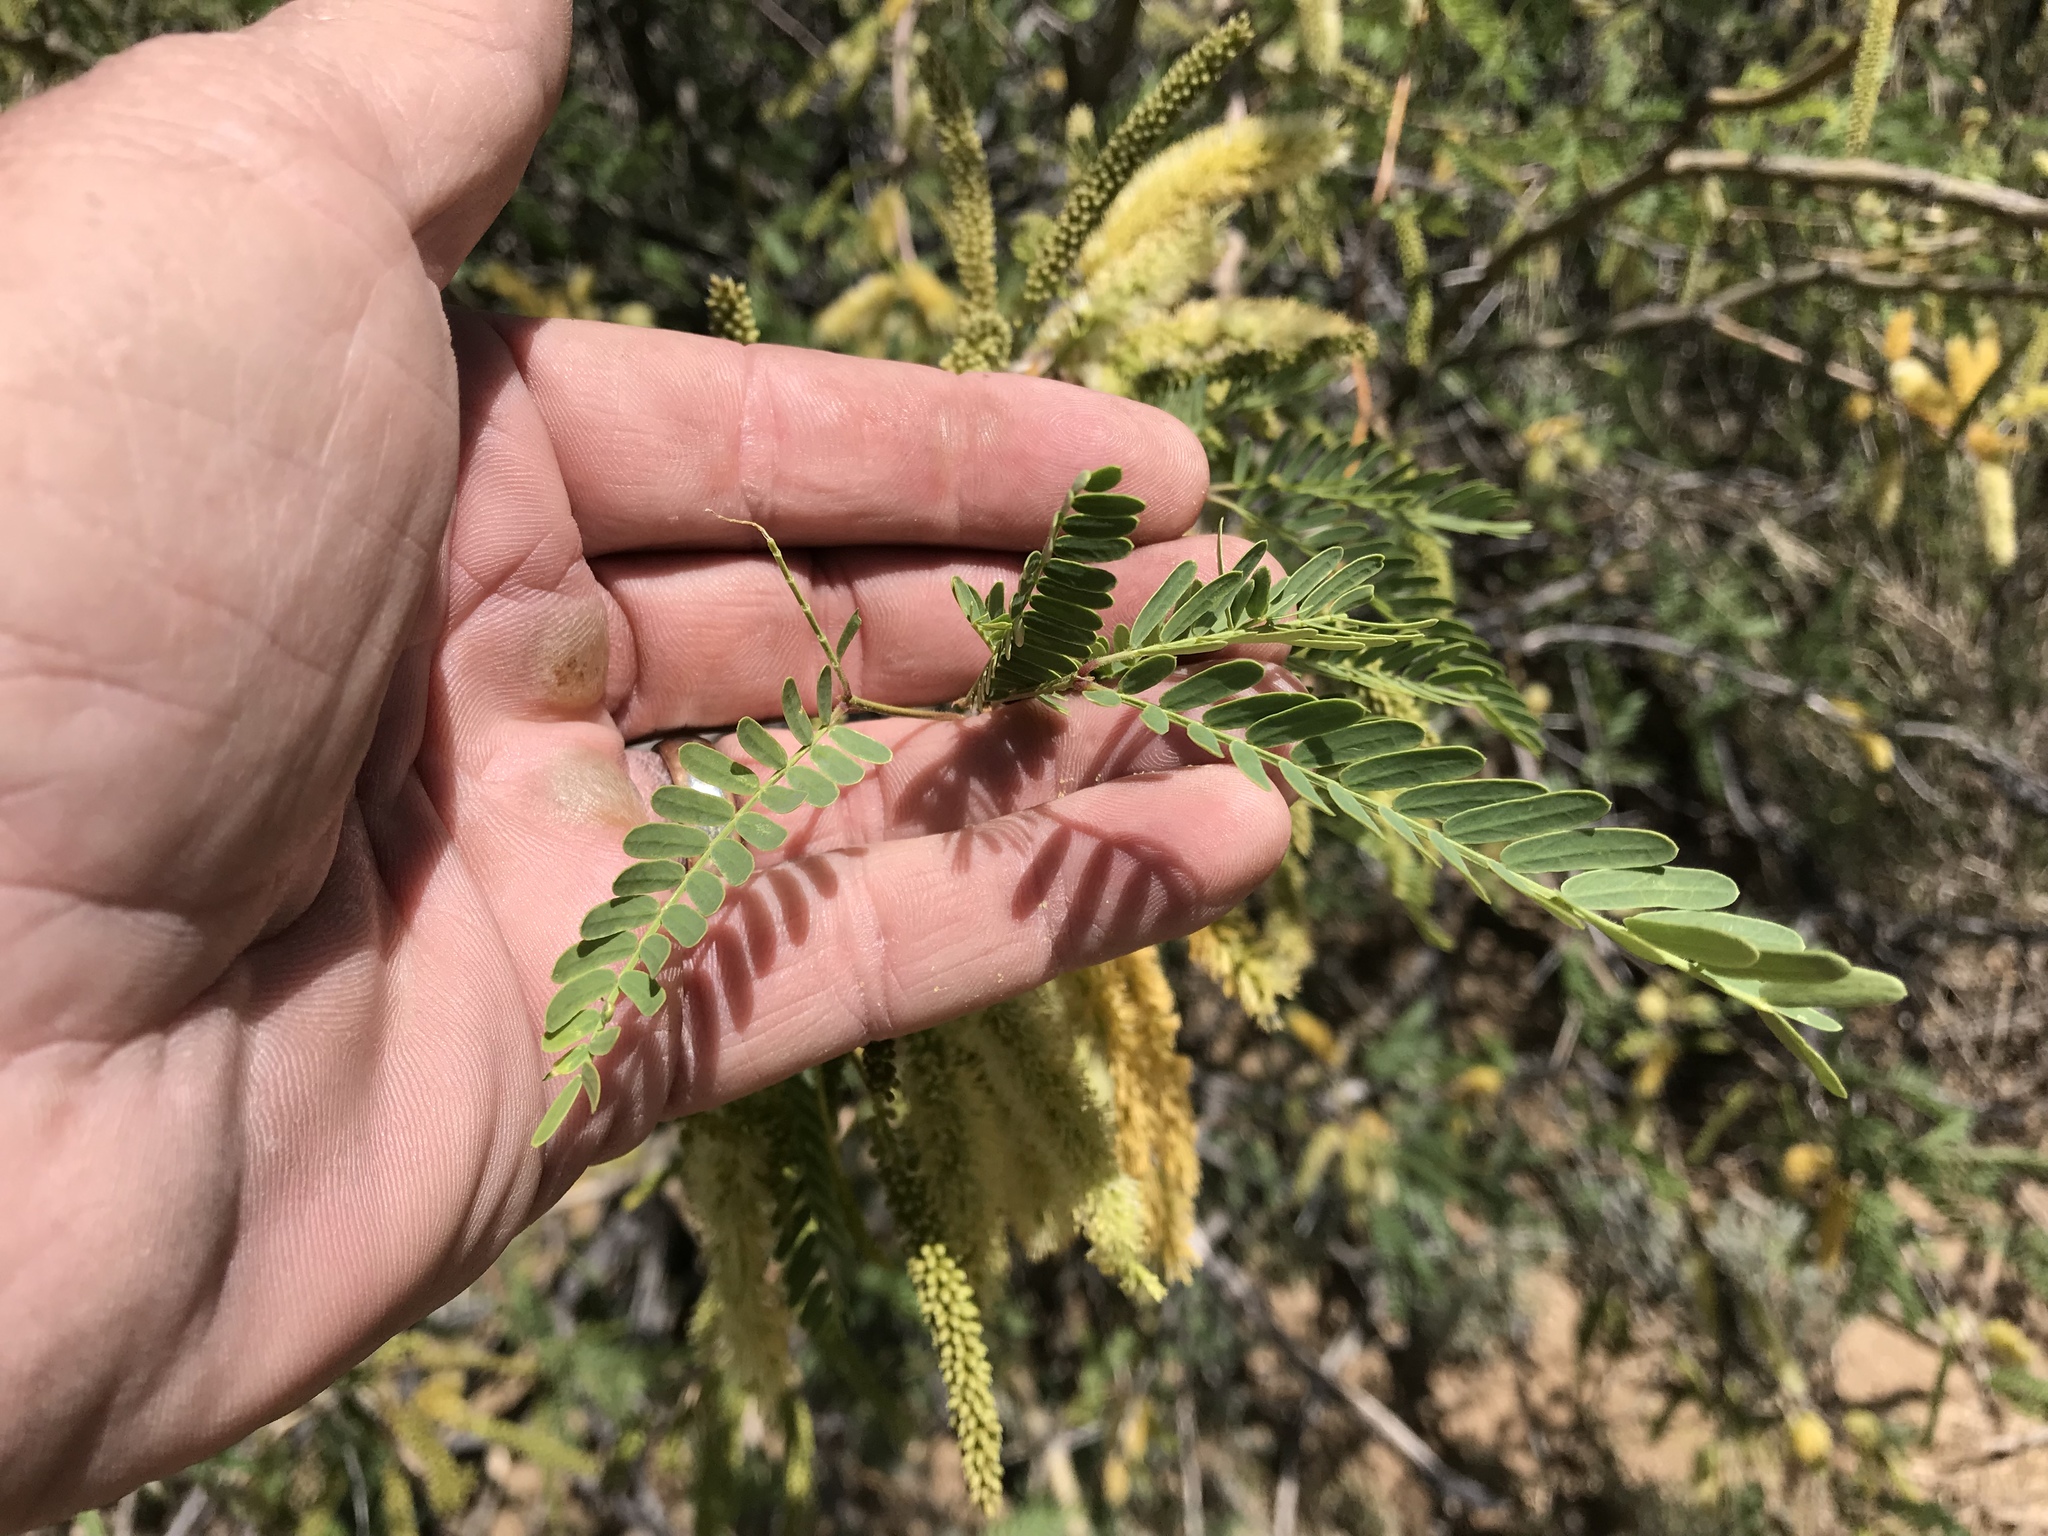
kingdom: Plantae
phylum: Tracheophyta
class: Magnoliopsida
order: Fabales
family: Fabaceae
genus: Prosopis
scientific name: Prosopis velutina
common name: Velvet mesquite
